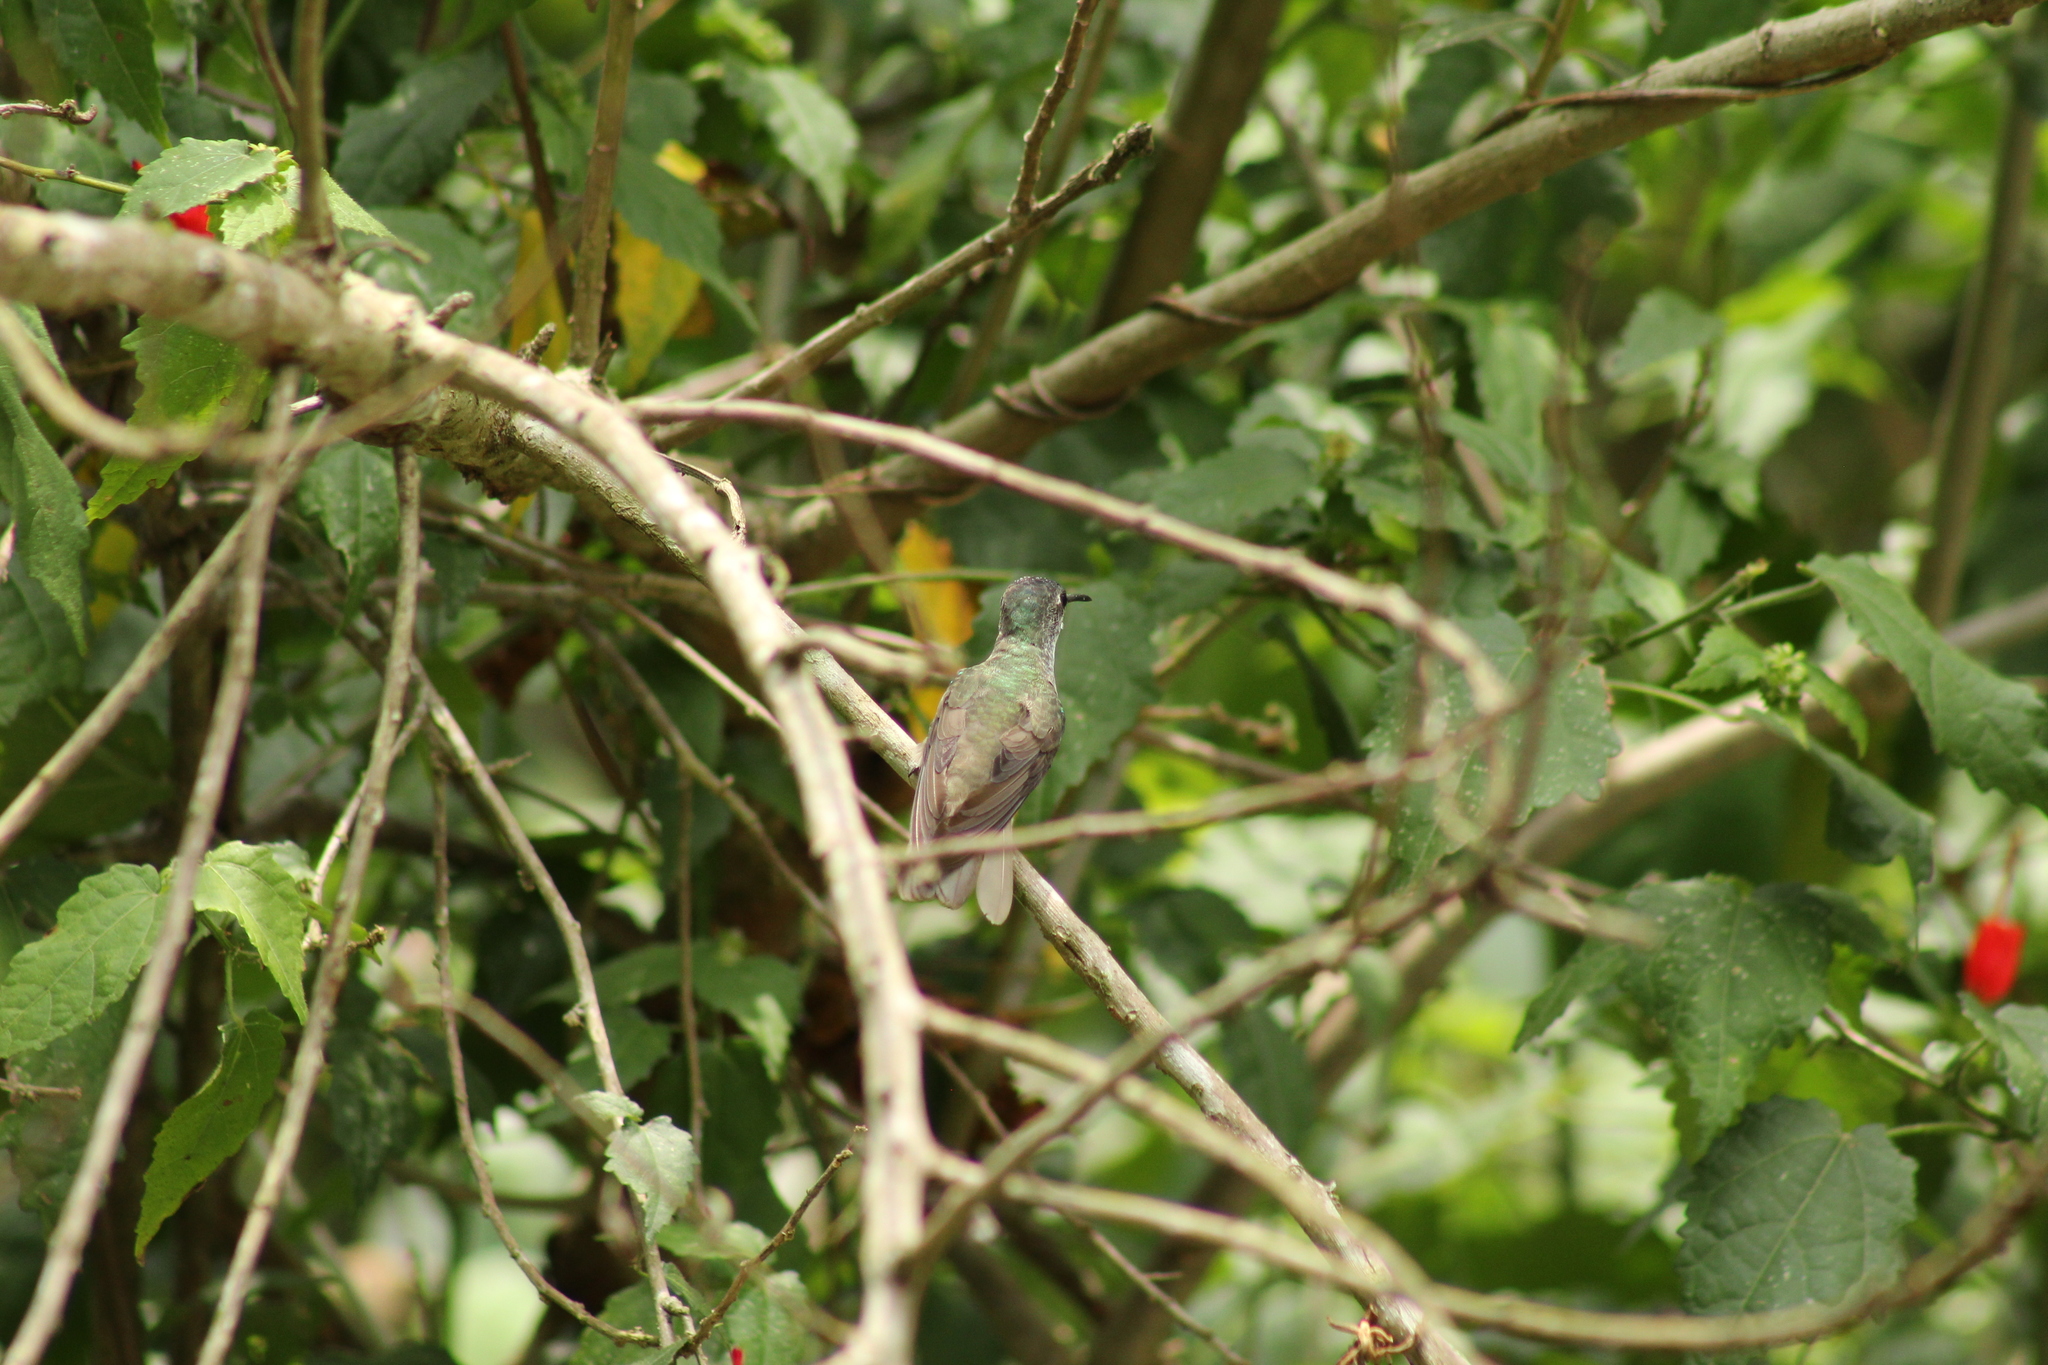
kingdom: Animalia
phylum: Chordata
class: Aves
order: Apodiformes
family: Trochilidae
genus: Saucerottia
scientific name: Saucerottia cyanocephala
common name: Azure-crowned hummingbird
